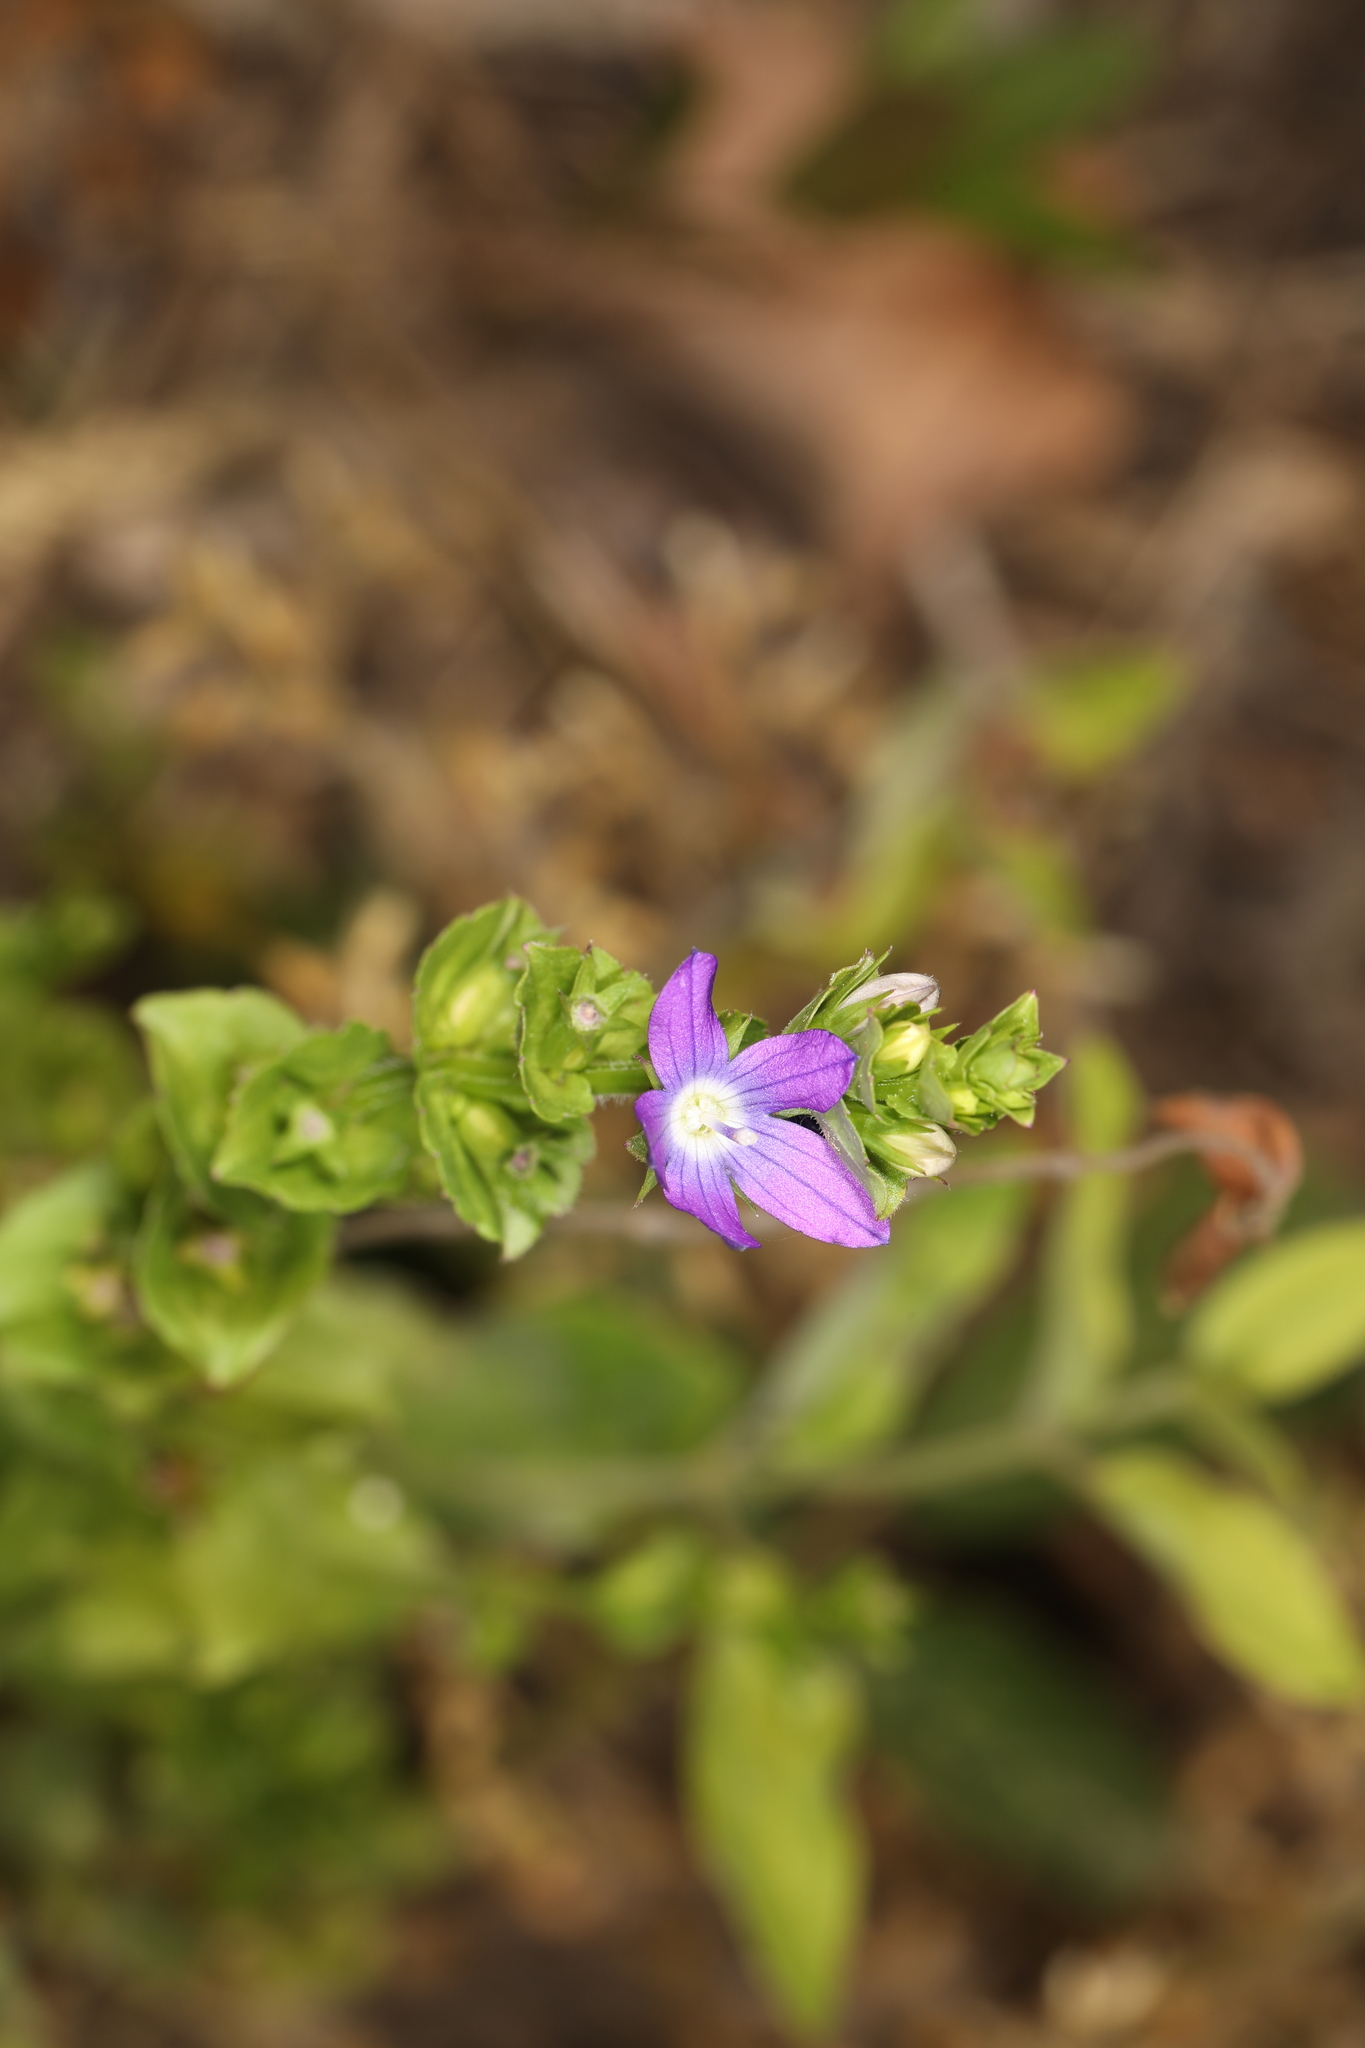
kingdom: Plantae
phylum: Tracheophyta
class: Magnoliopsida
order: Asterales
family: Campanulaceae
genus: Triodanis
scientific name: Triodanis perfoliata
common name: Clasping venus' looking-glass
